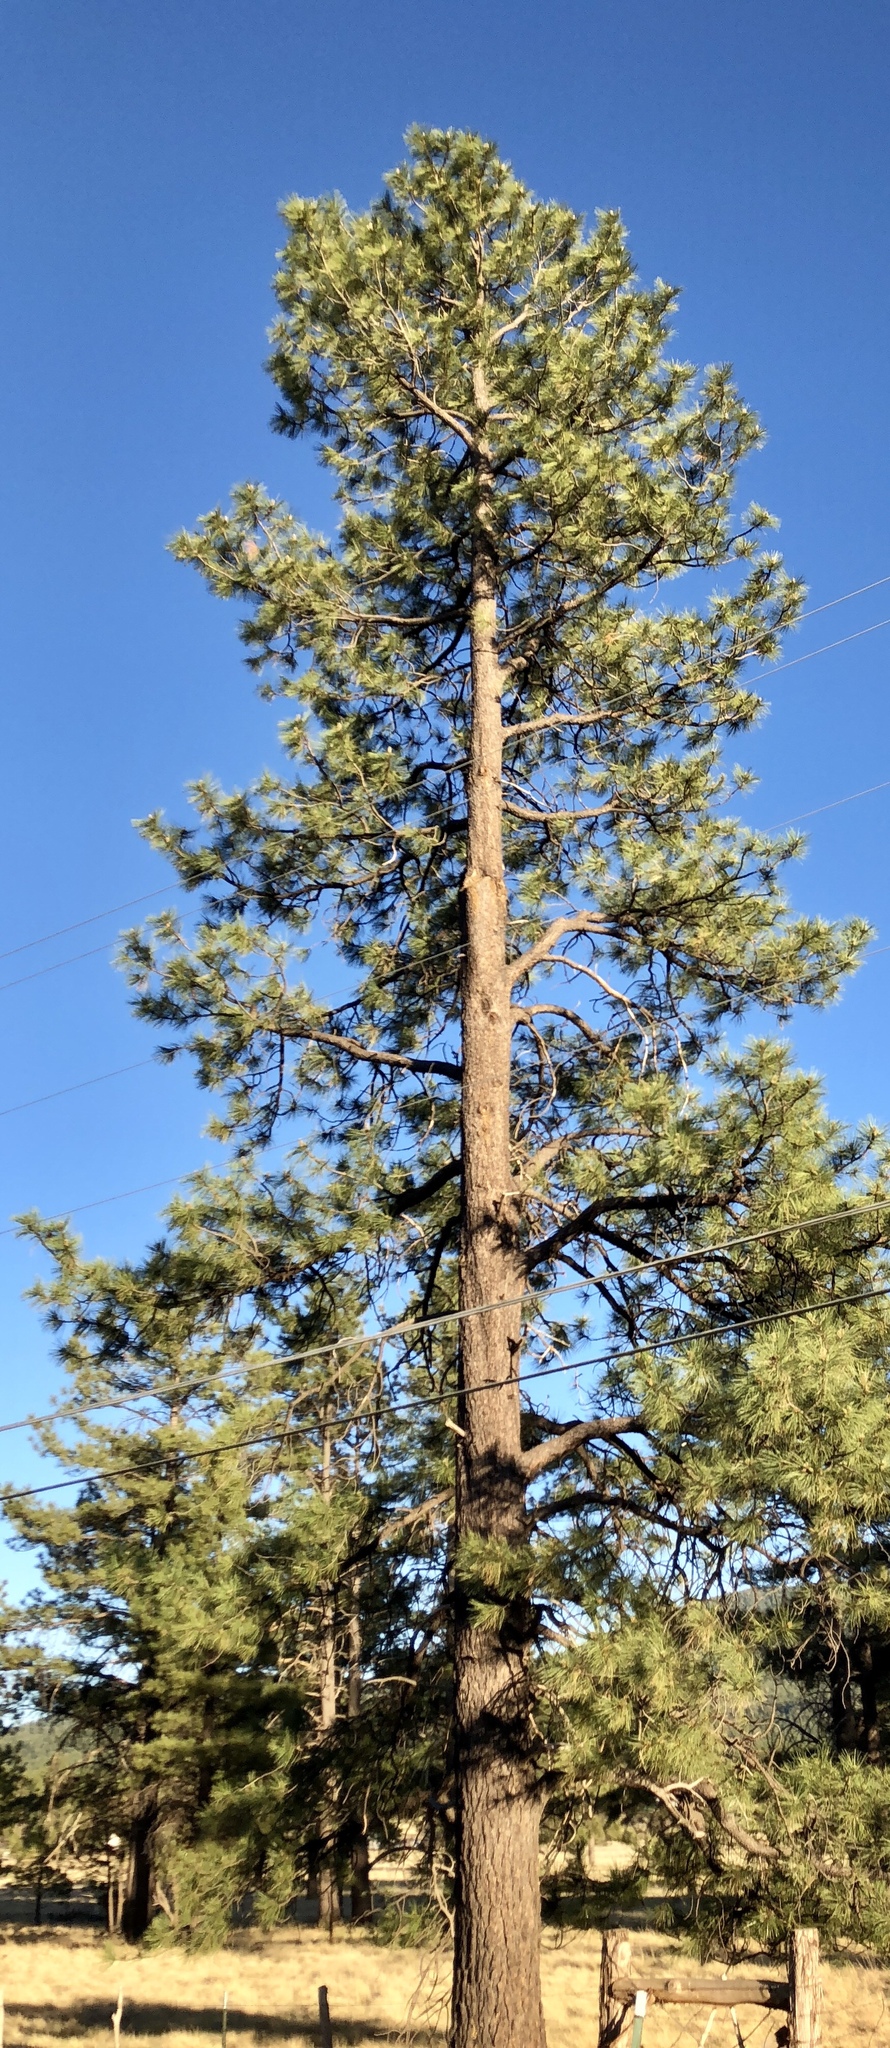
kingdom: Plantae
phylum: Tracheophyta
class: Pinopsida
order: Pinales
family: Pinaceae
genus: Pinus
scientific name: Pinus ponderosa
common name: Western yellow-pine
